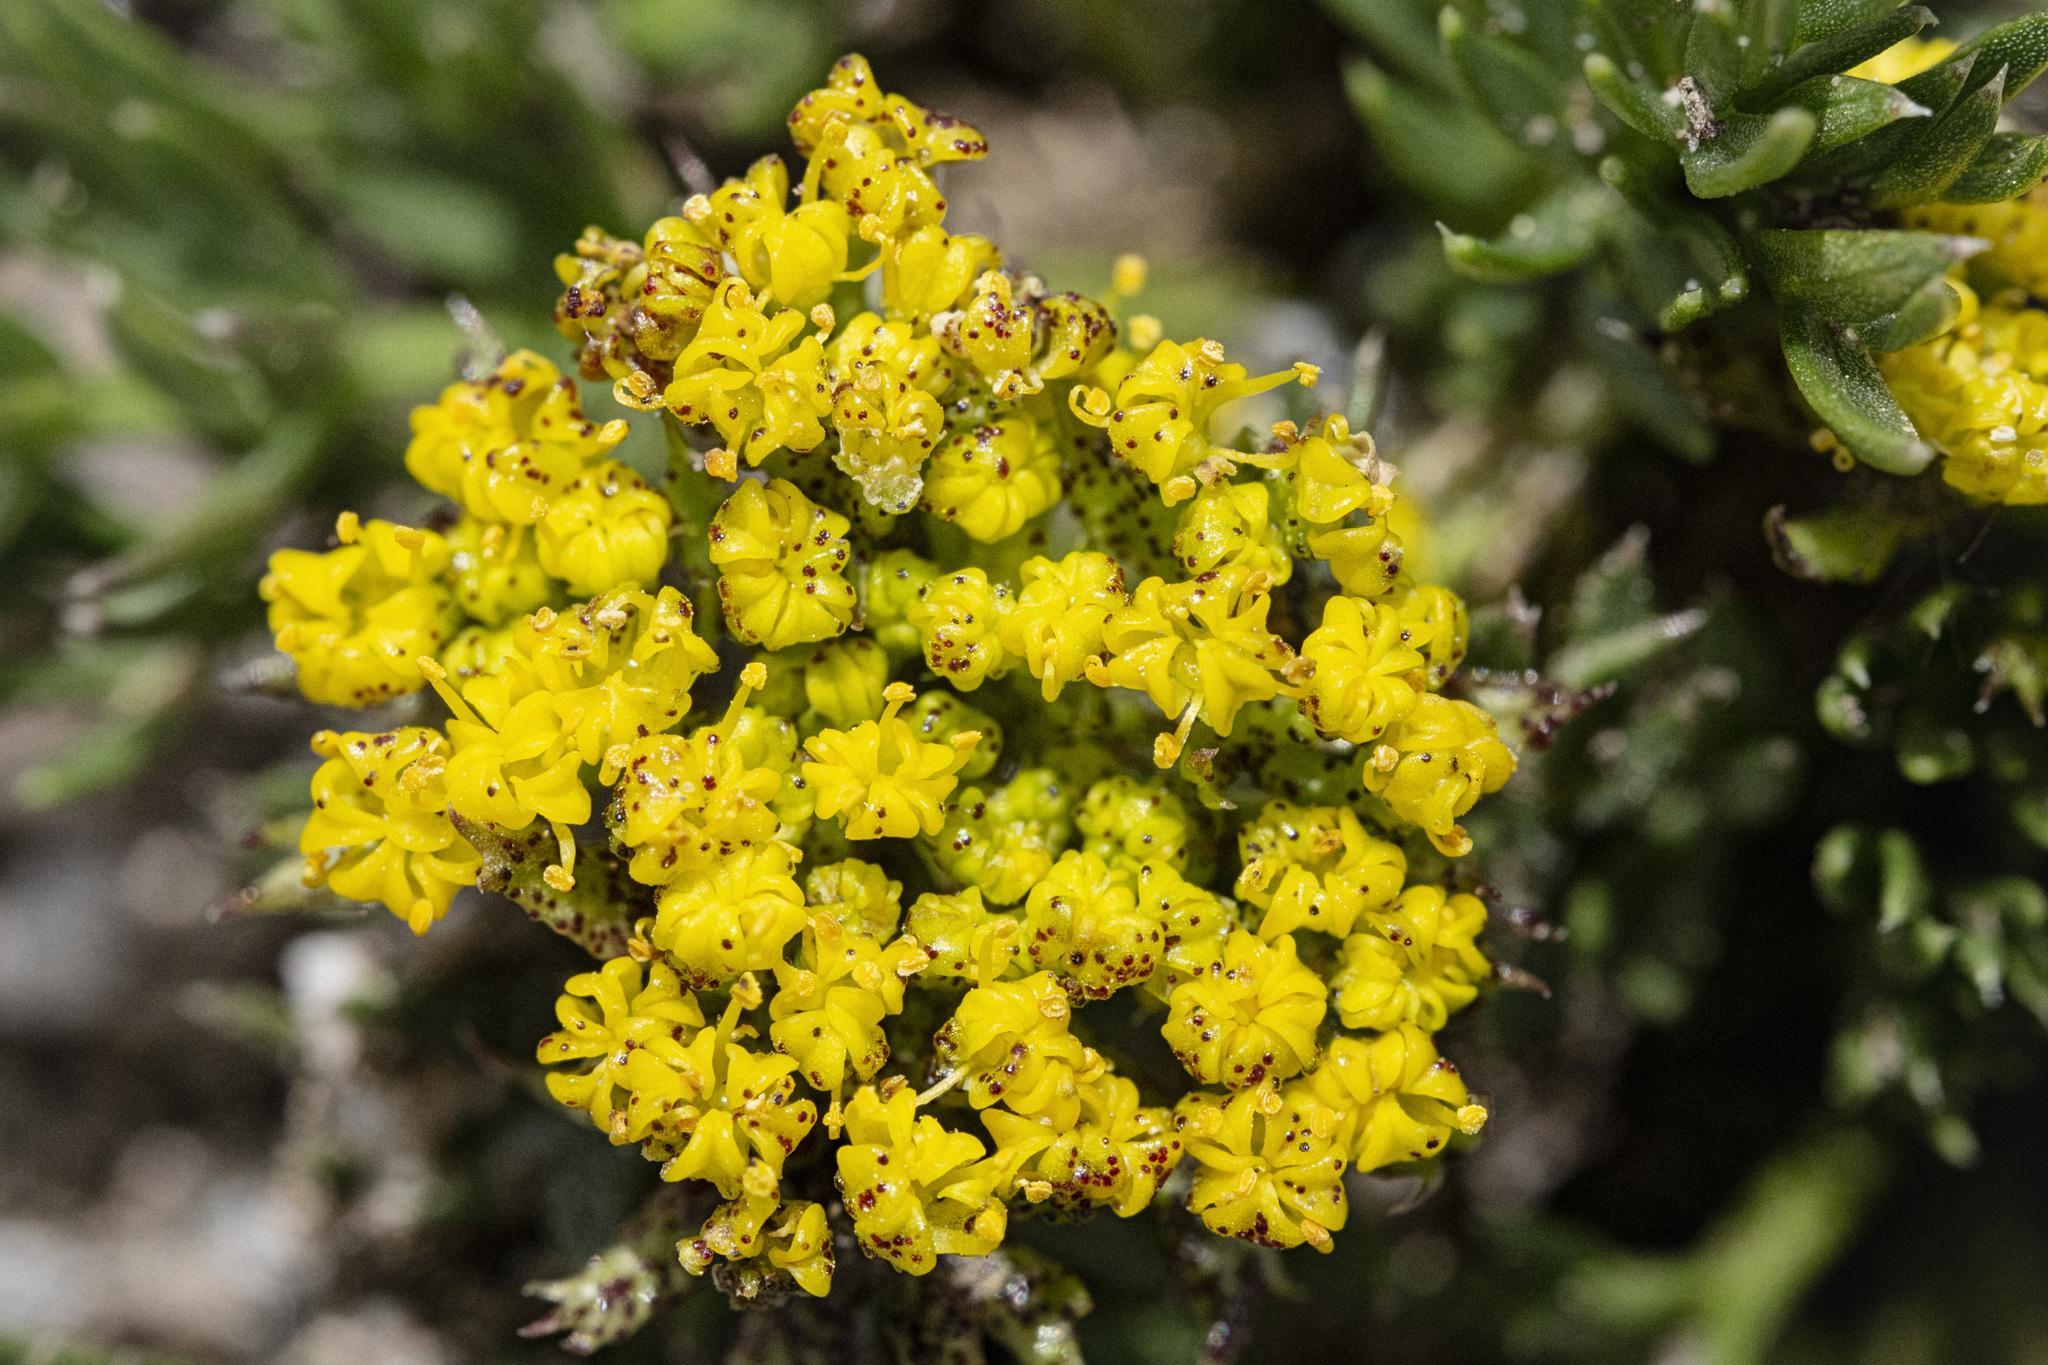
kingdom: Plantae
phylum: Tracheophyta
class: Magnoliopsida
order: Apiales
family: Apiaceae
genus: Oreoxis
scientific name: Oreoxis bakeri
